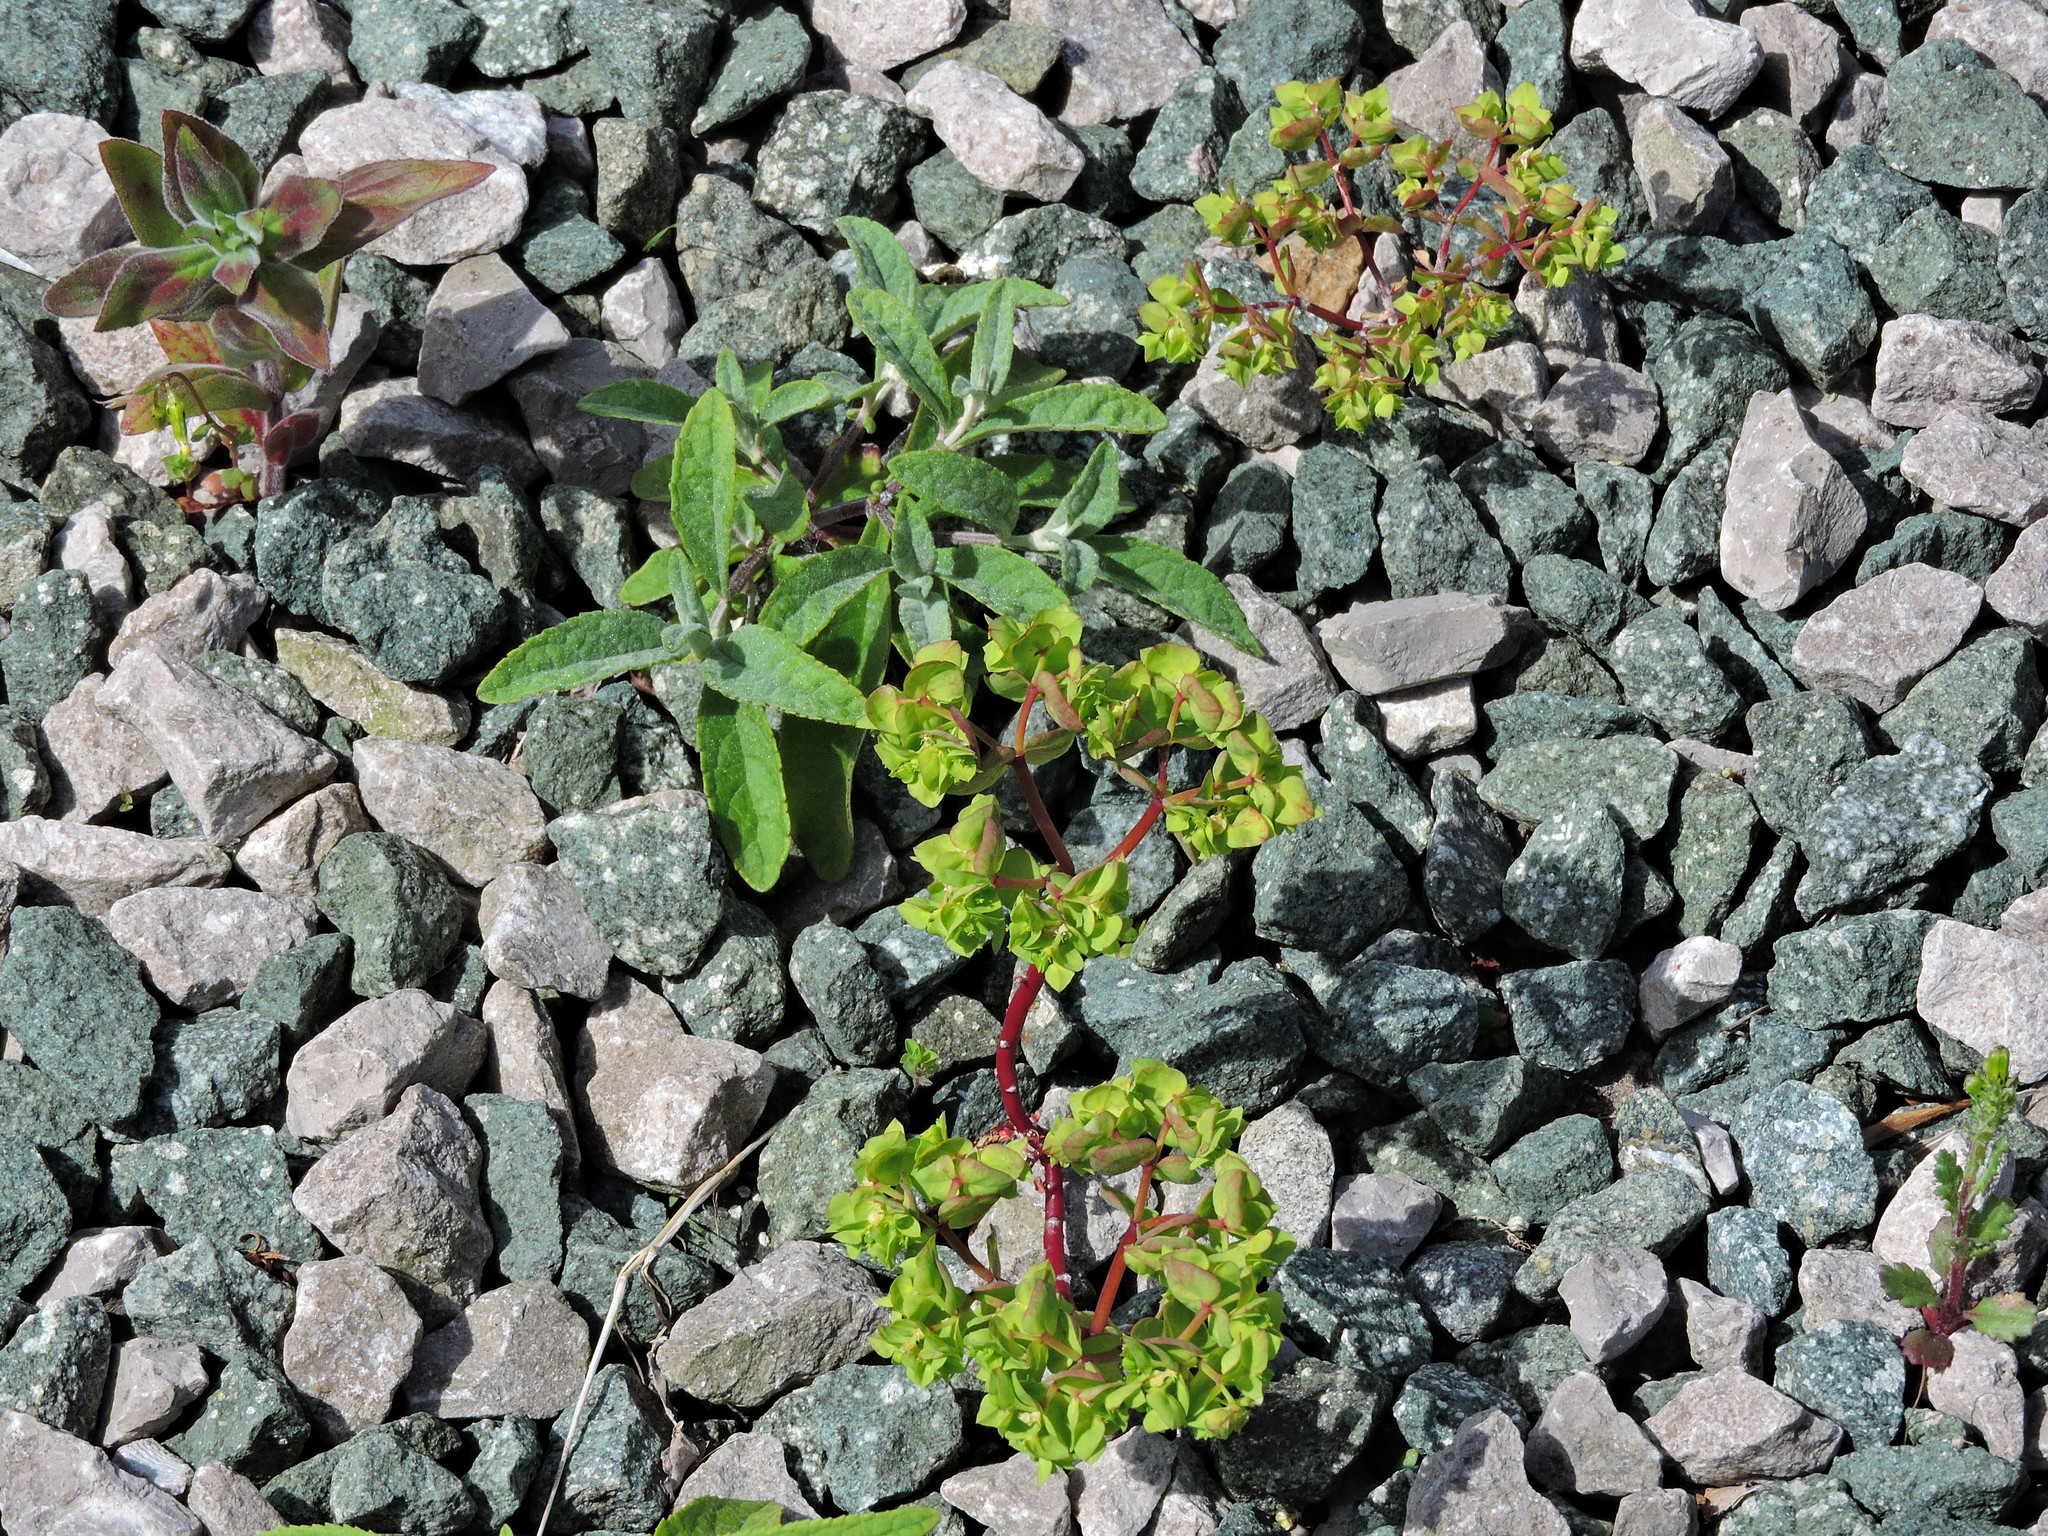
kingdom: Plantae
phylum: Tracheophyta
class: Magnoliopsida
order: Malpighiales
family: Euphorbiaceae
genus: Euphorbia
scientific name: Euphorbia peplus
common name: Petty spurge
